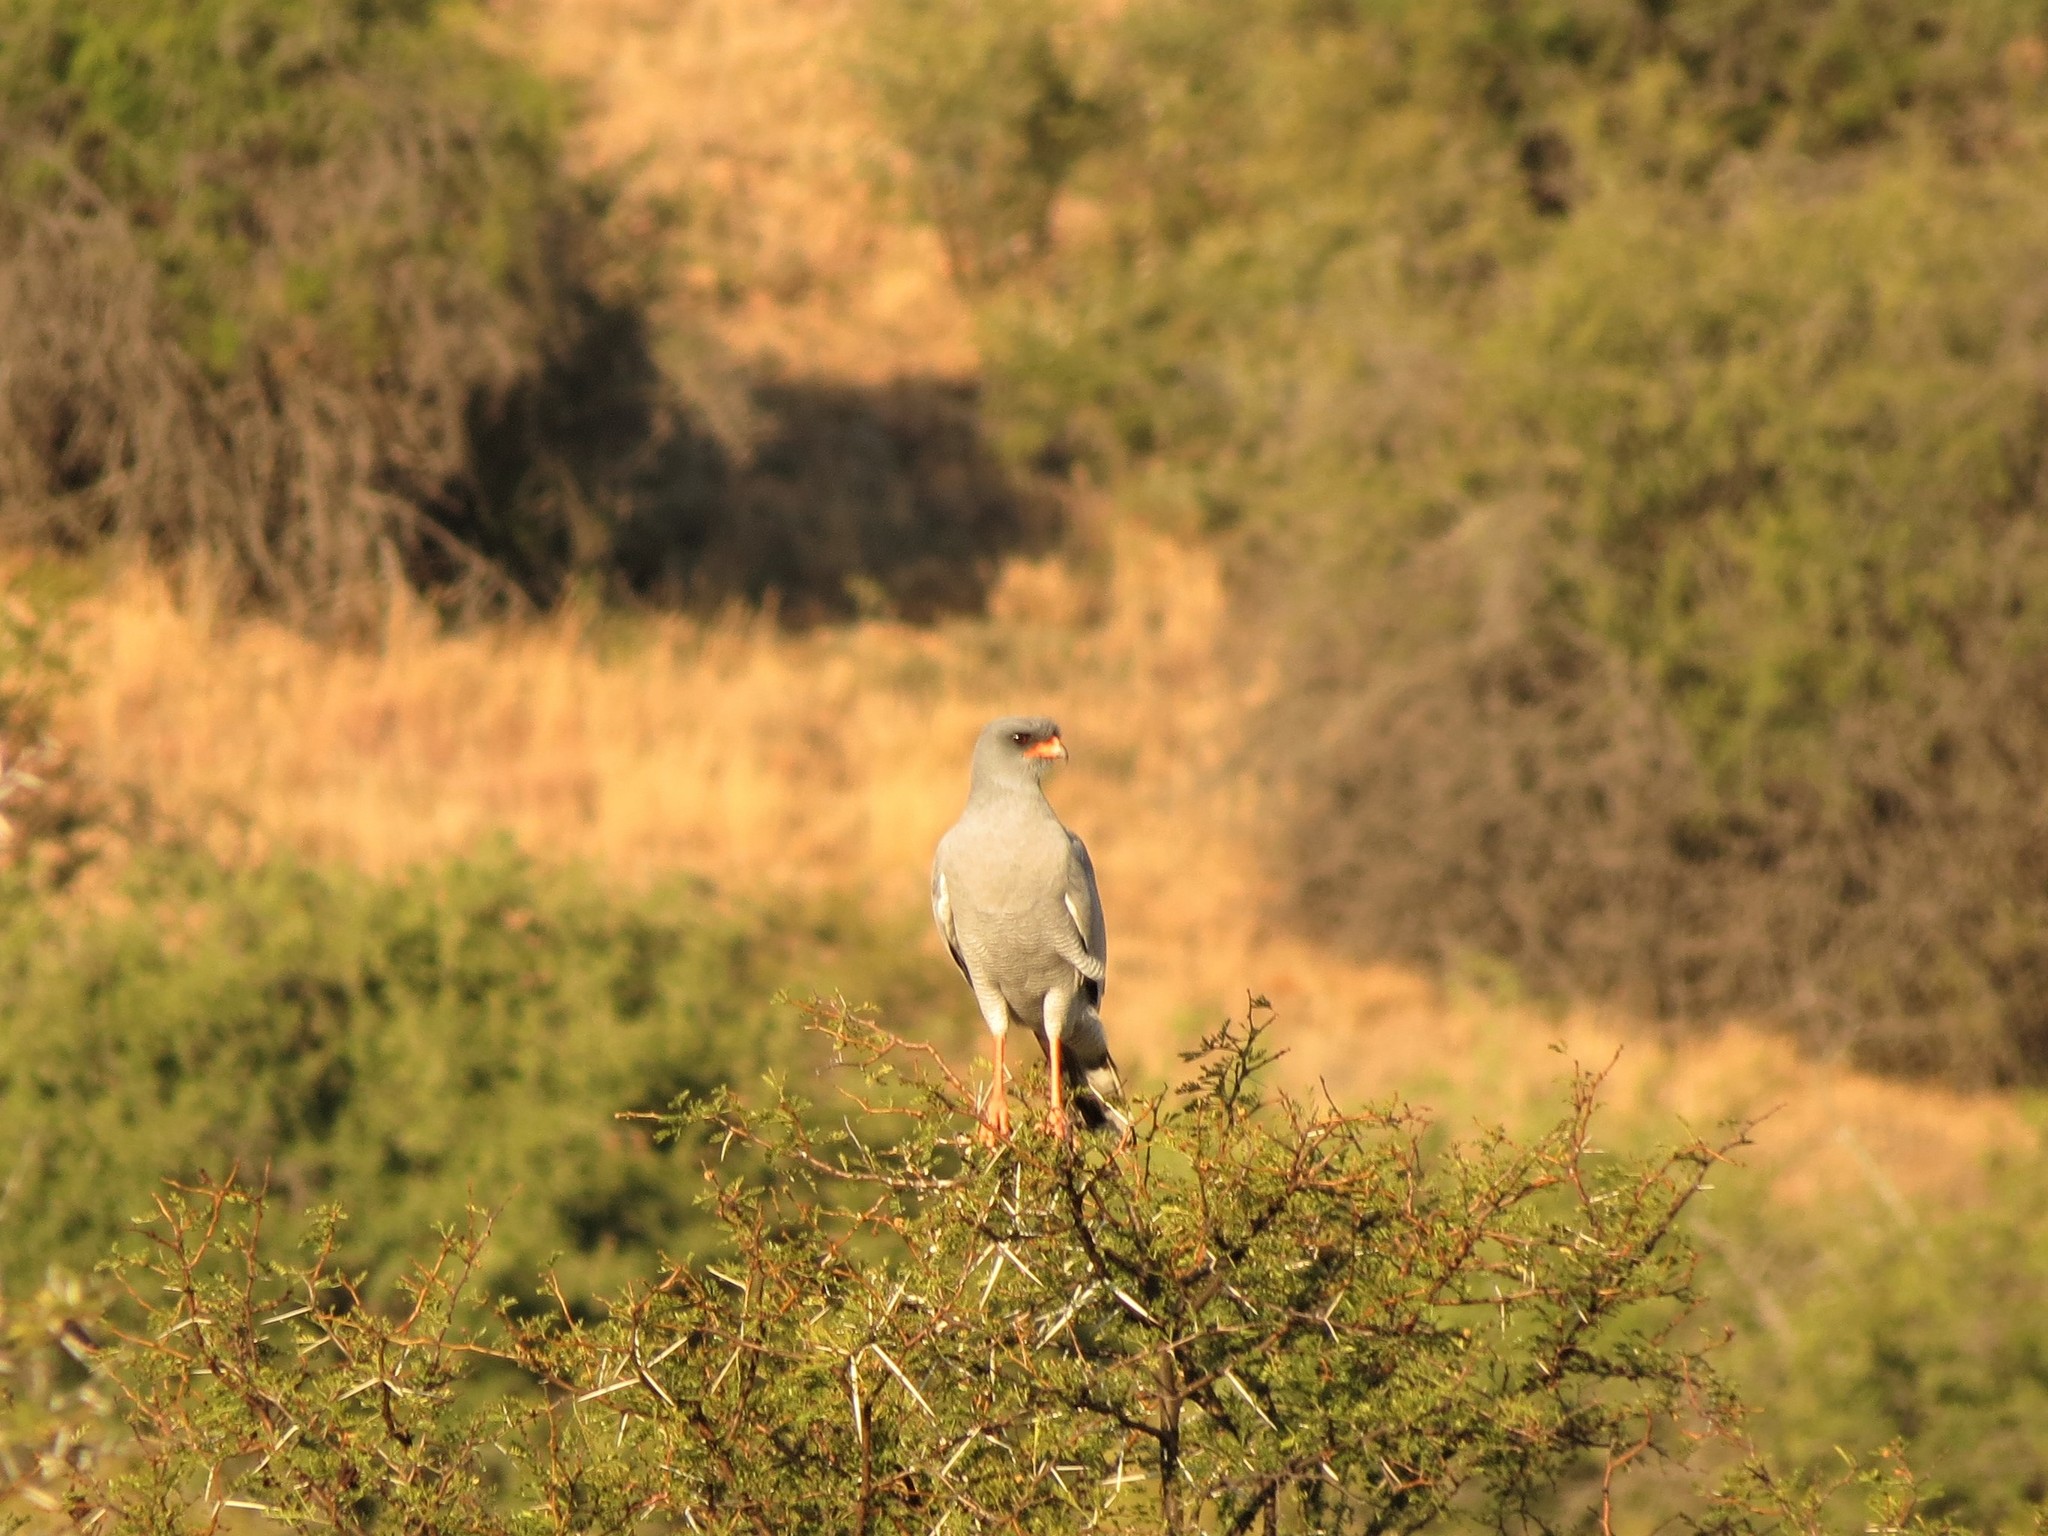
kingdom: Animalia
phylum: Chordata
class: Aves
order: Accipitriformes
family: Accipitridae
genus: Melierax
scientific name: Melierax canorus
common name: Pale chanting-goshawk
